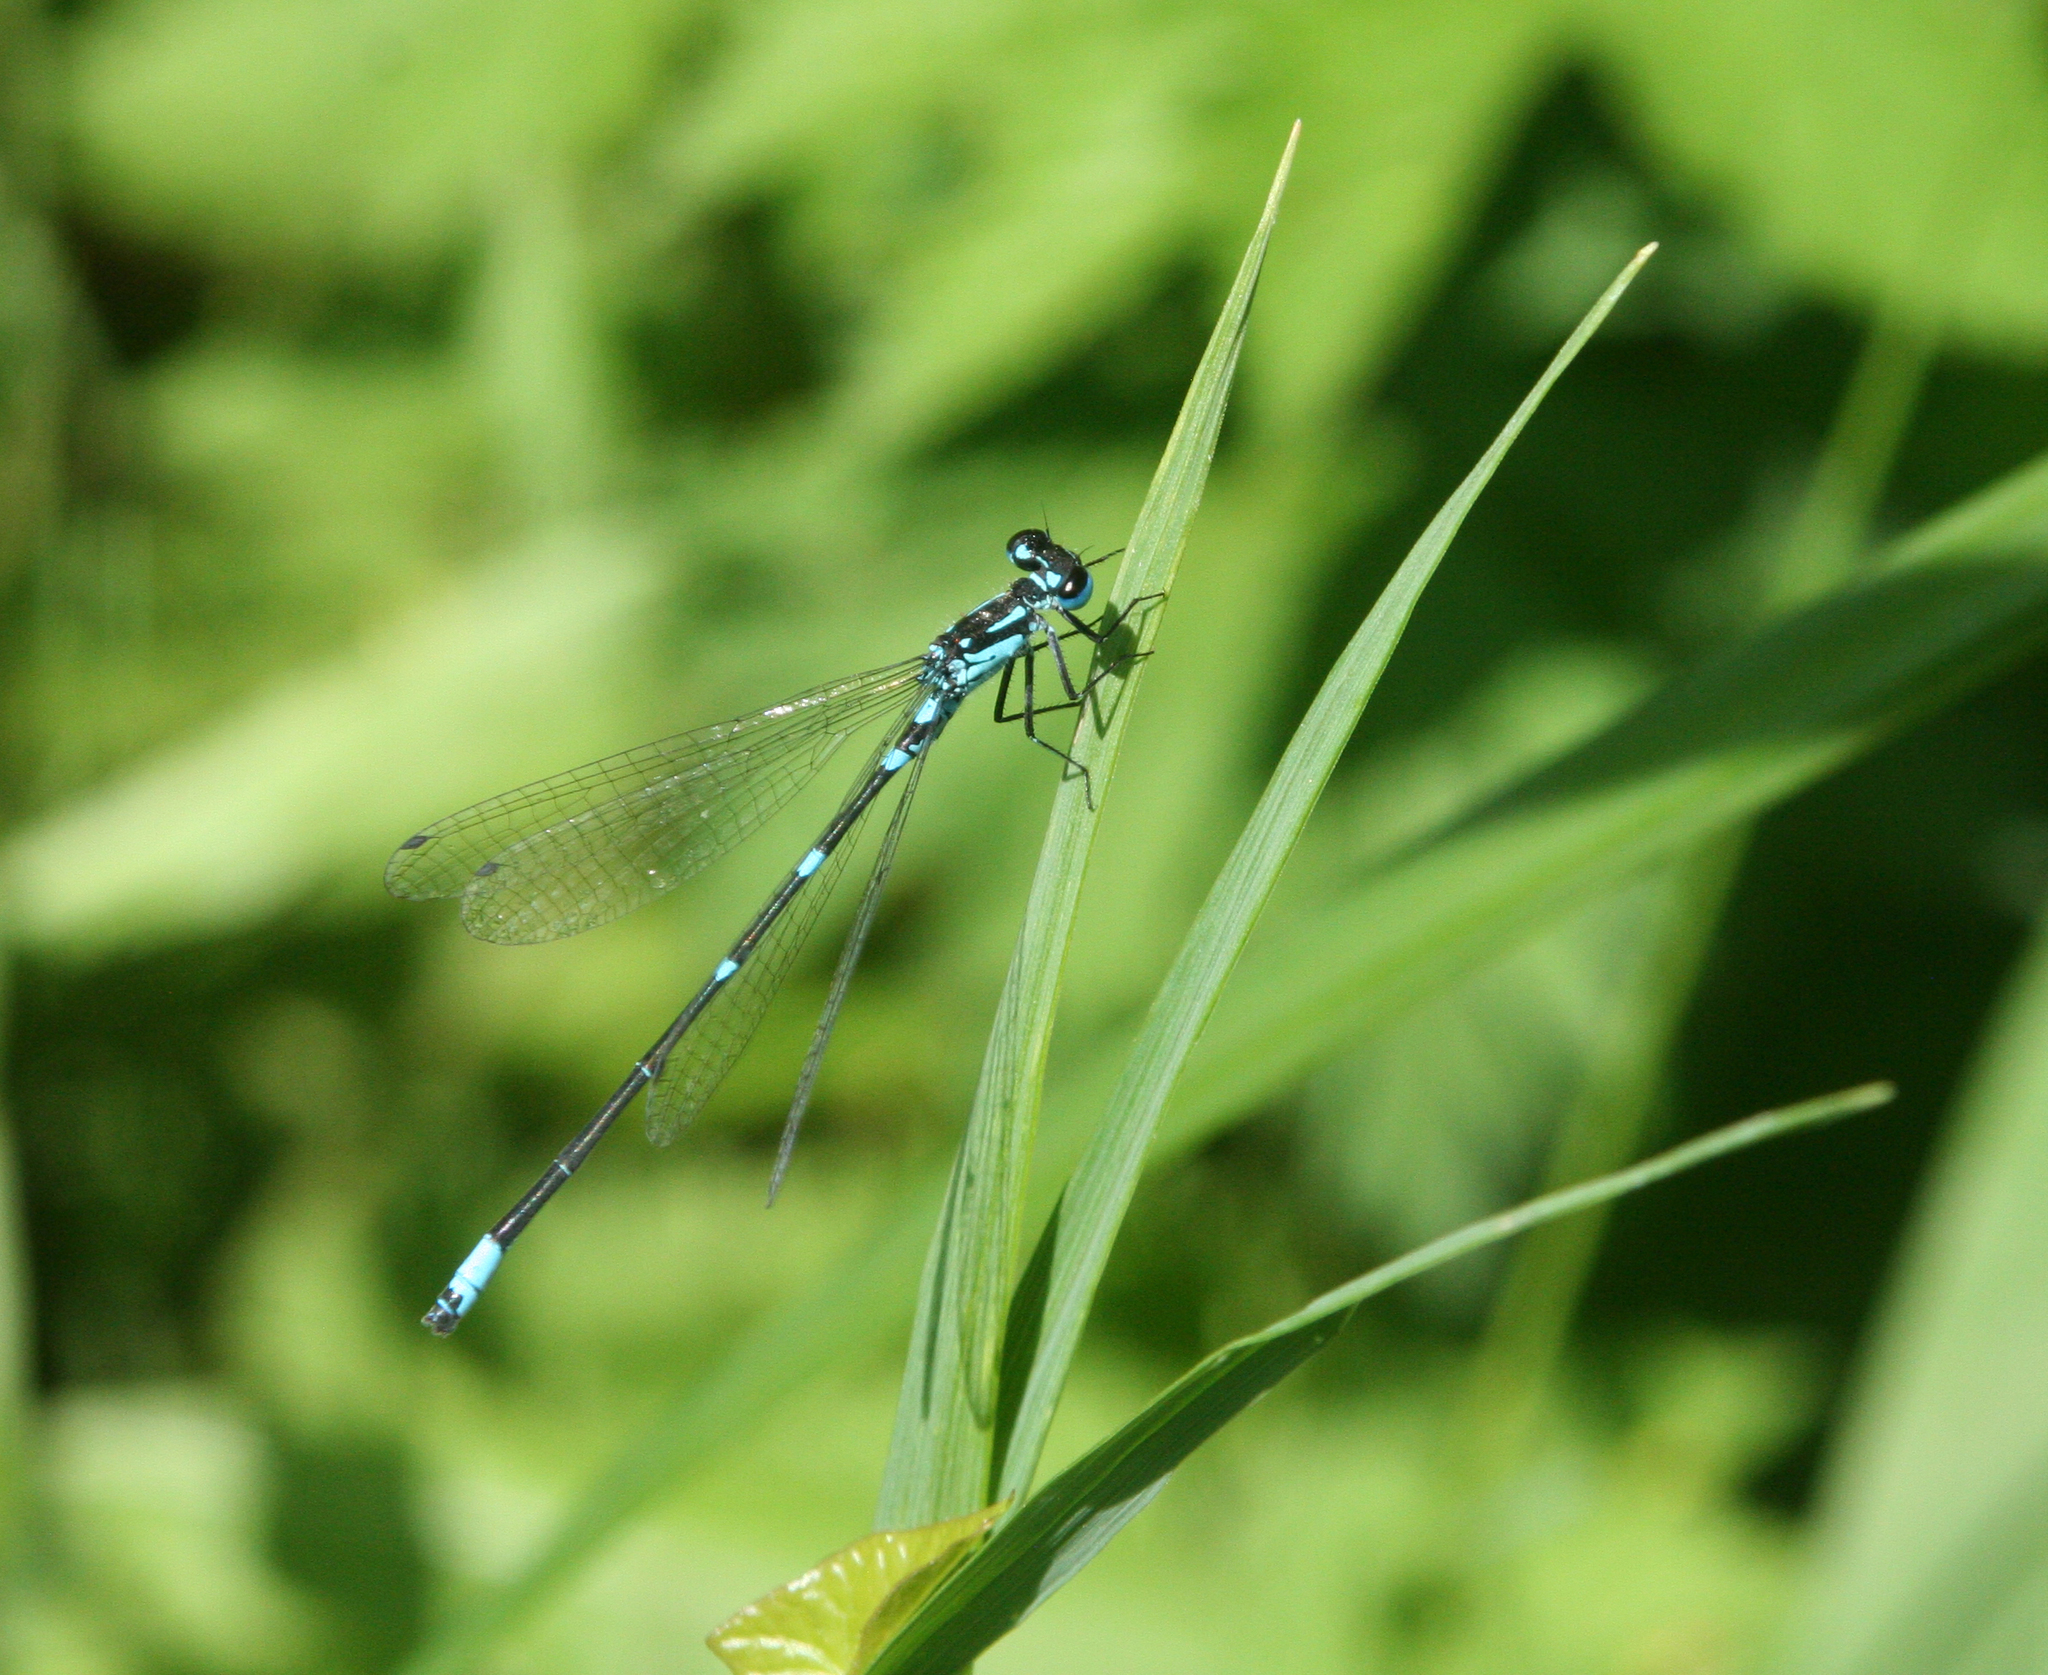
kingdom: Animalia
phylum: Arthropoda
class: Insecta
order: Odonata
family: Coenagrionidae
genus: Coenagrion
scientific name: Coenagrion pulchellum
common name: Variable bluet
